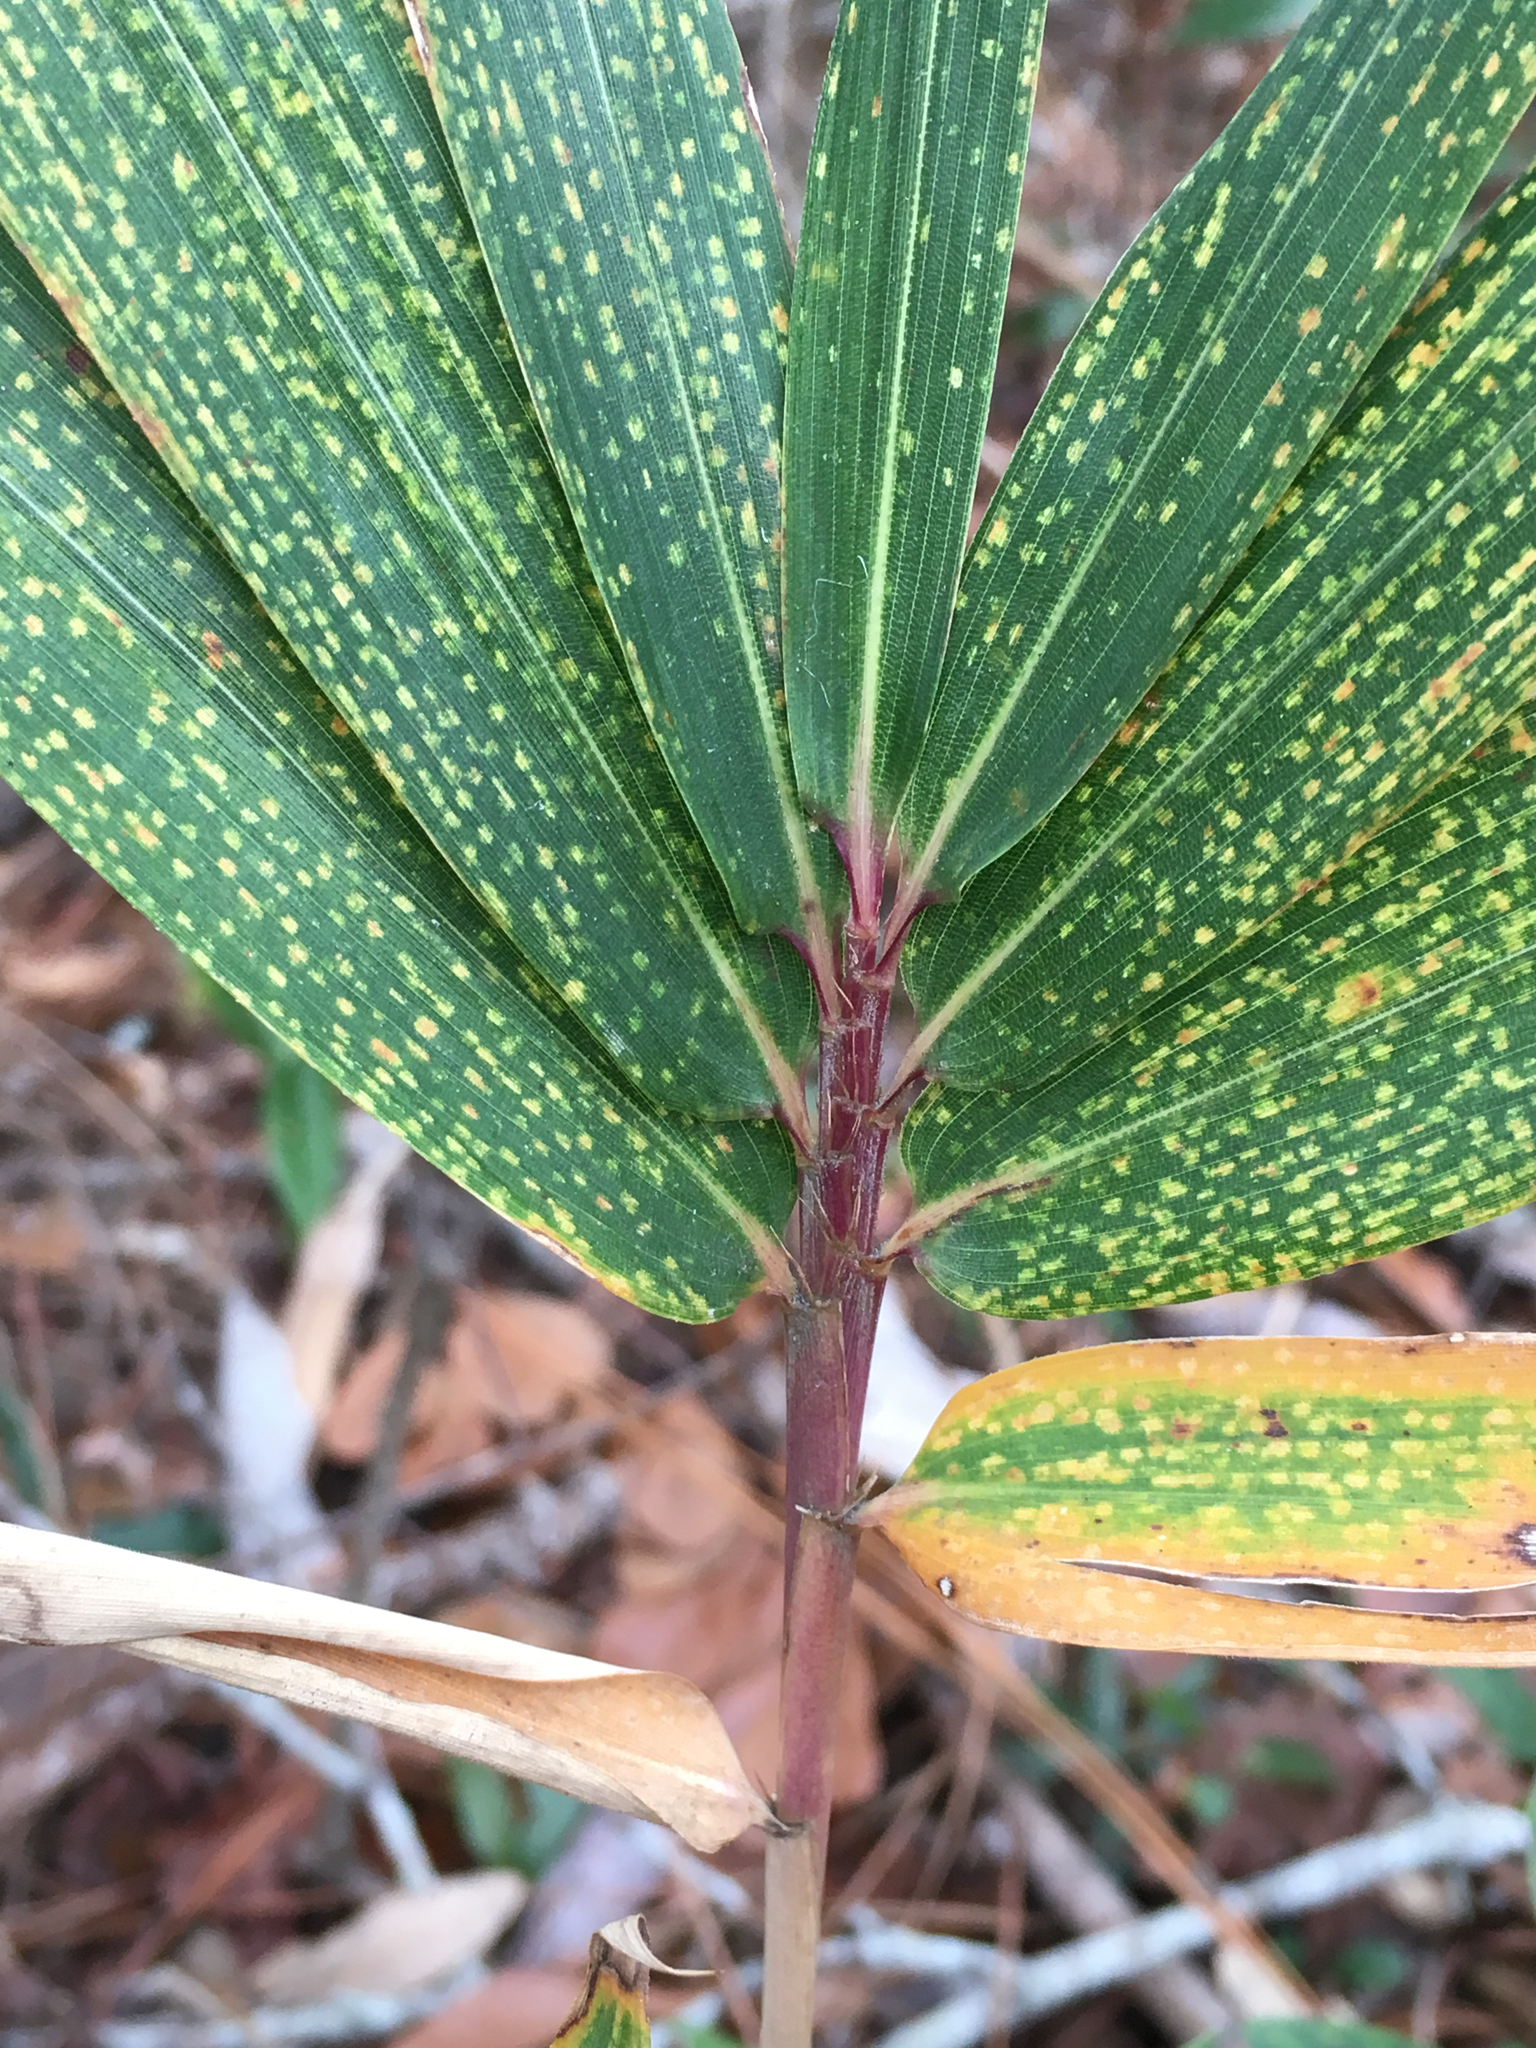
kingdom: Plantae
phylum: Tracheophyta
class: Liliopsida
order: Poales
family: Poaceae
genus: Arundinaria
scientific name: Arundinaria tecta
